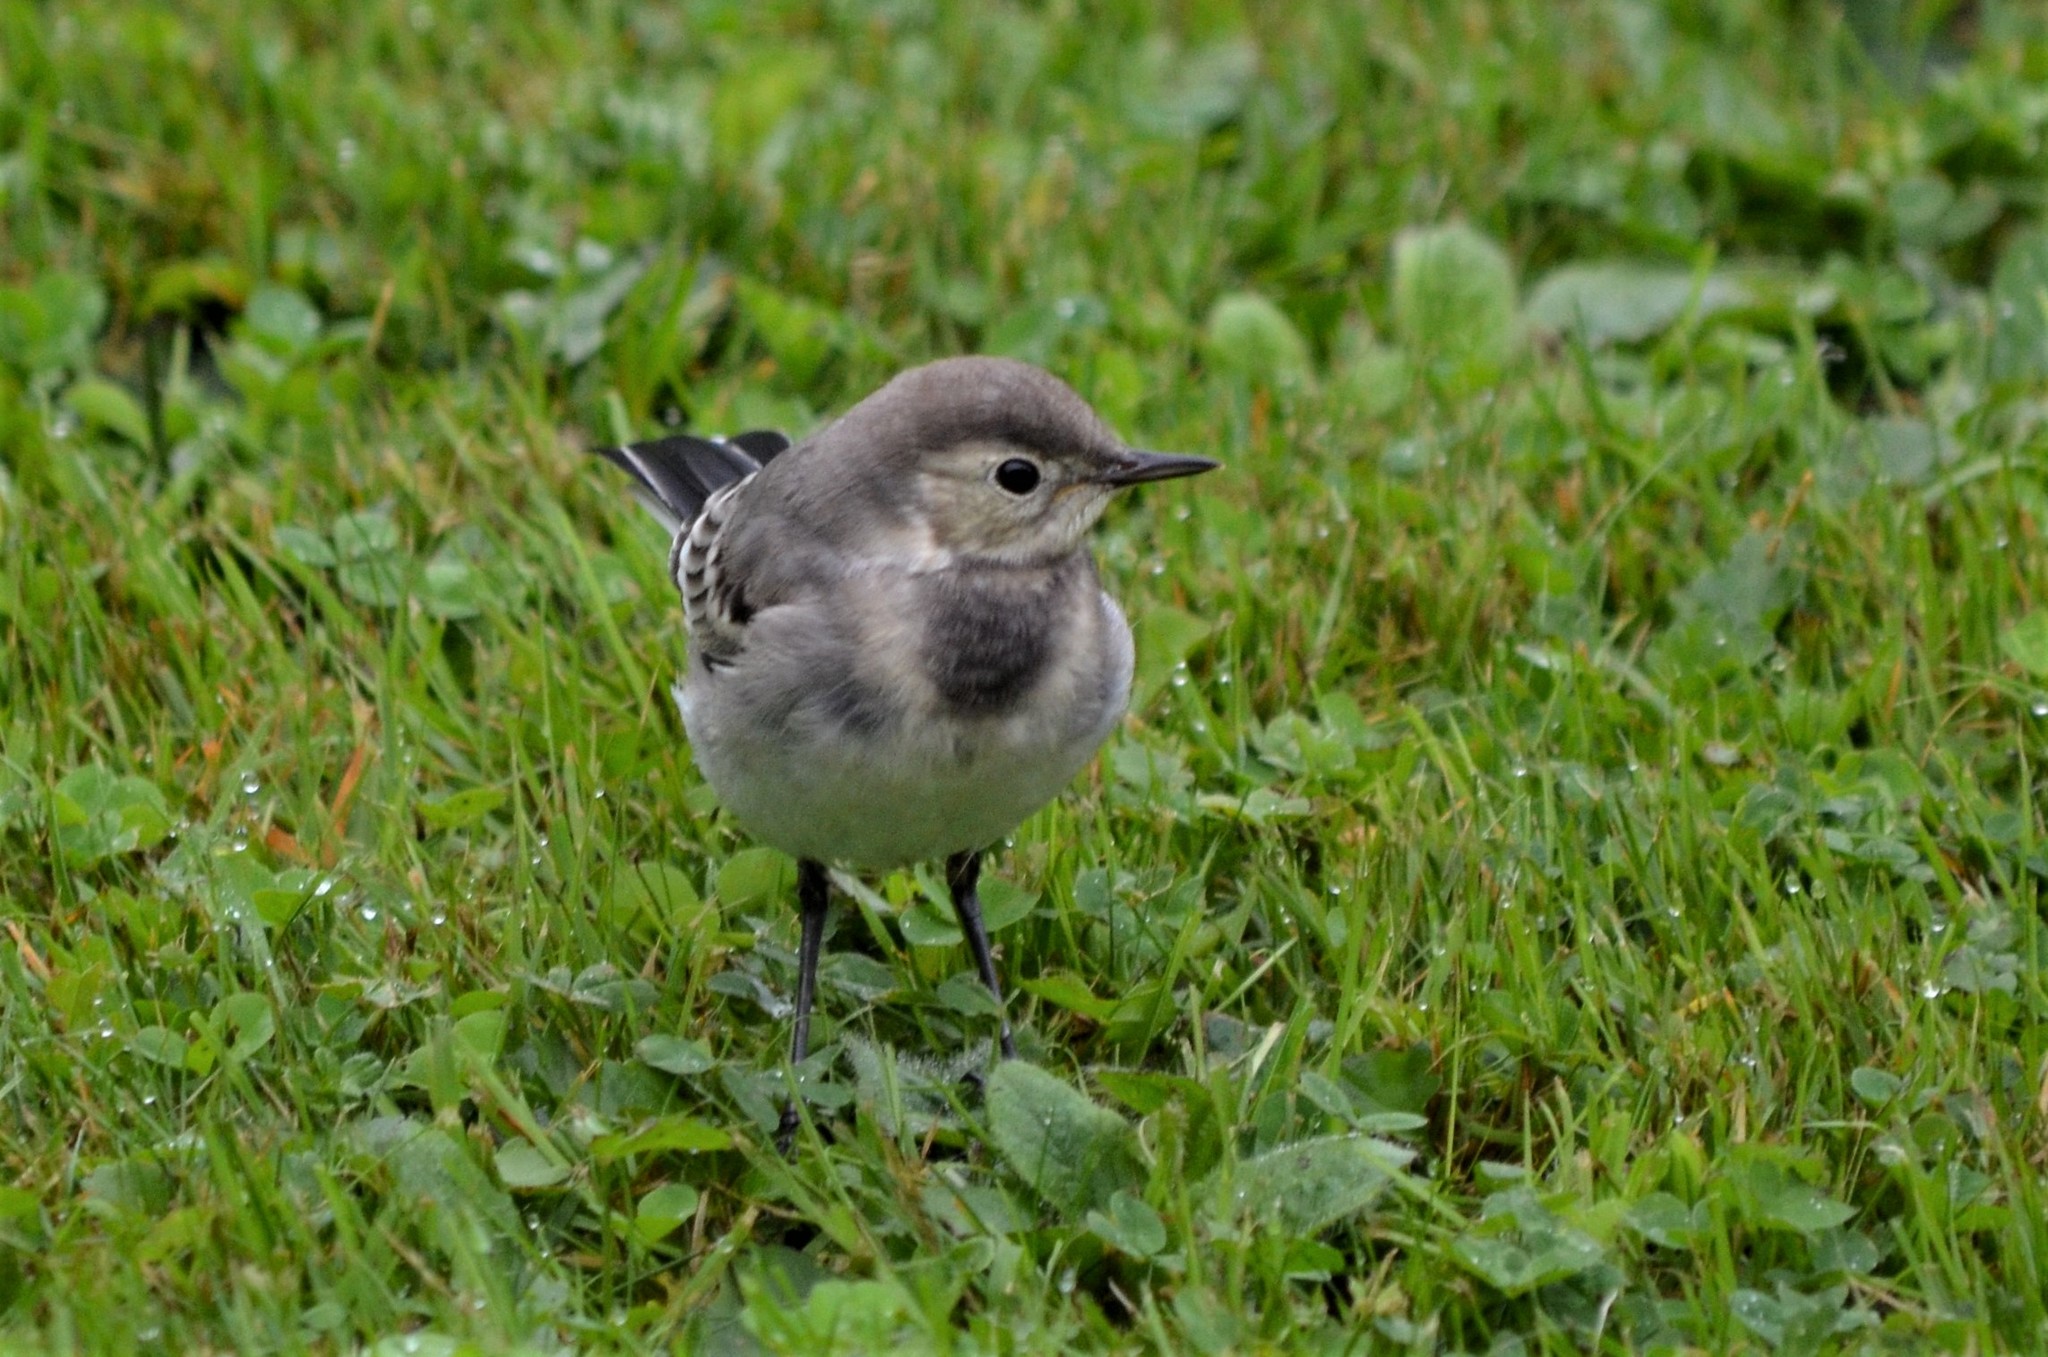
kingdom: Animalia
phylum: Chordata
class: Aves
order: Passeriformes
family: Motacillidae
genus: Motacilla
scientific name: Motacilla alba
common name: White wagtail
